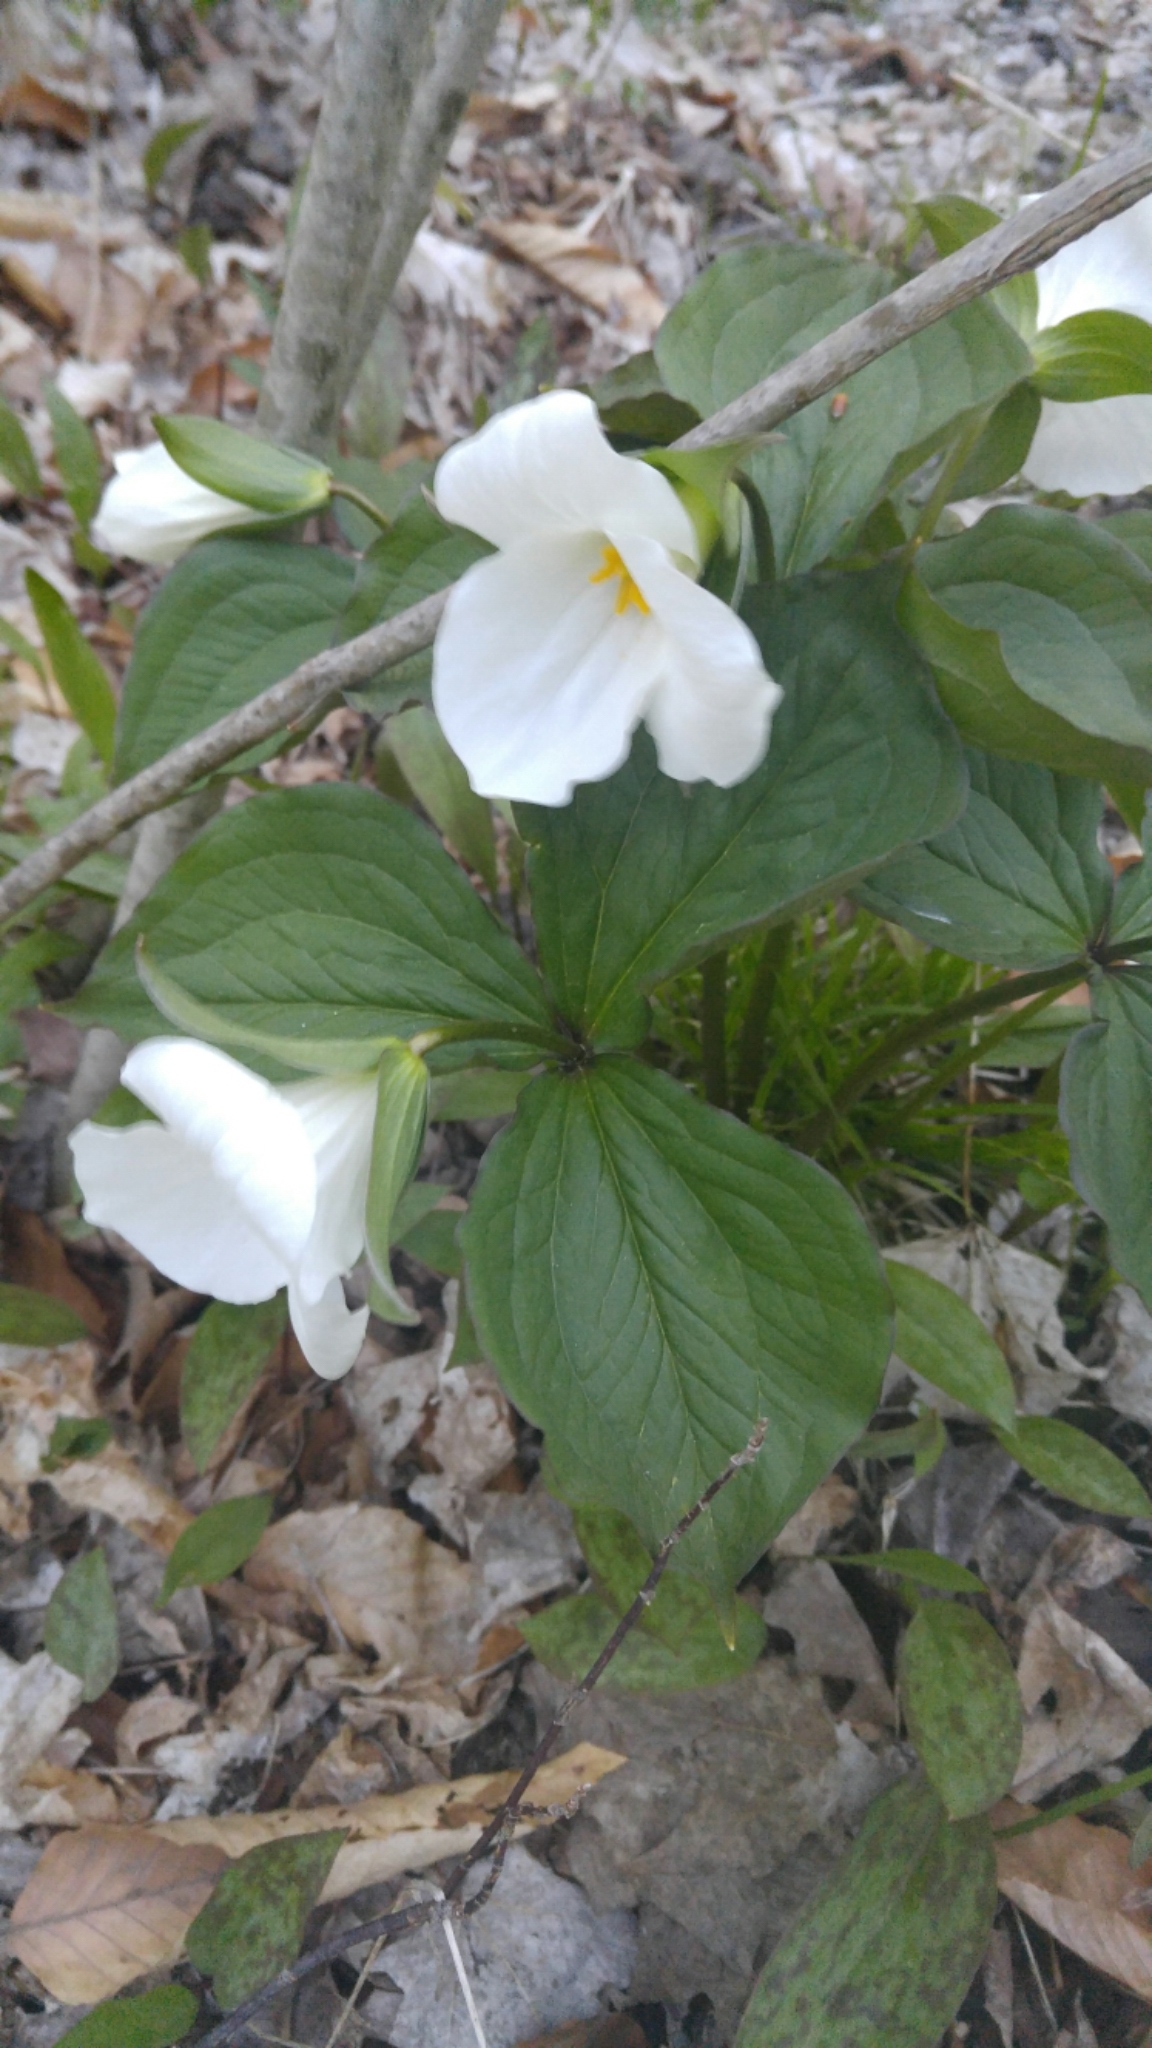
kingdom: Plantae
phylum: Tracheophyta
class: Liliopsida
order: Liliales
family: Melanthiaceae
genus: Trillium
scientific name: Trillium grandiflorum
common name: Great white trillium
